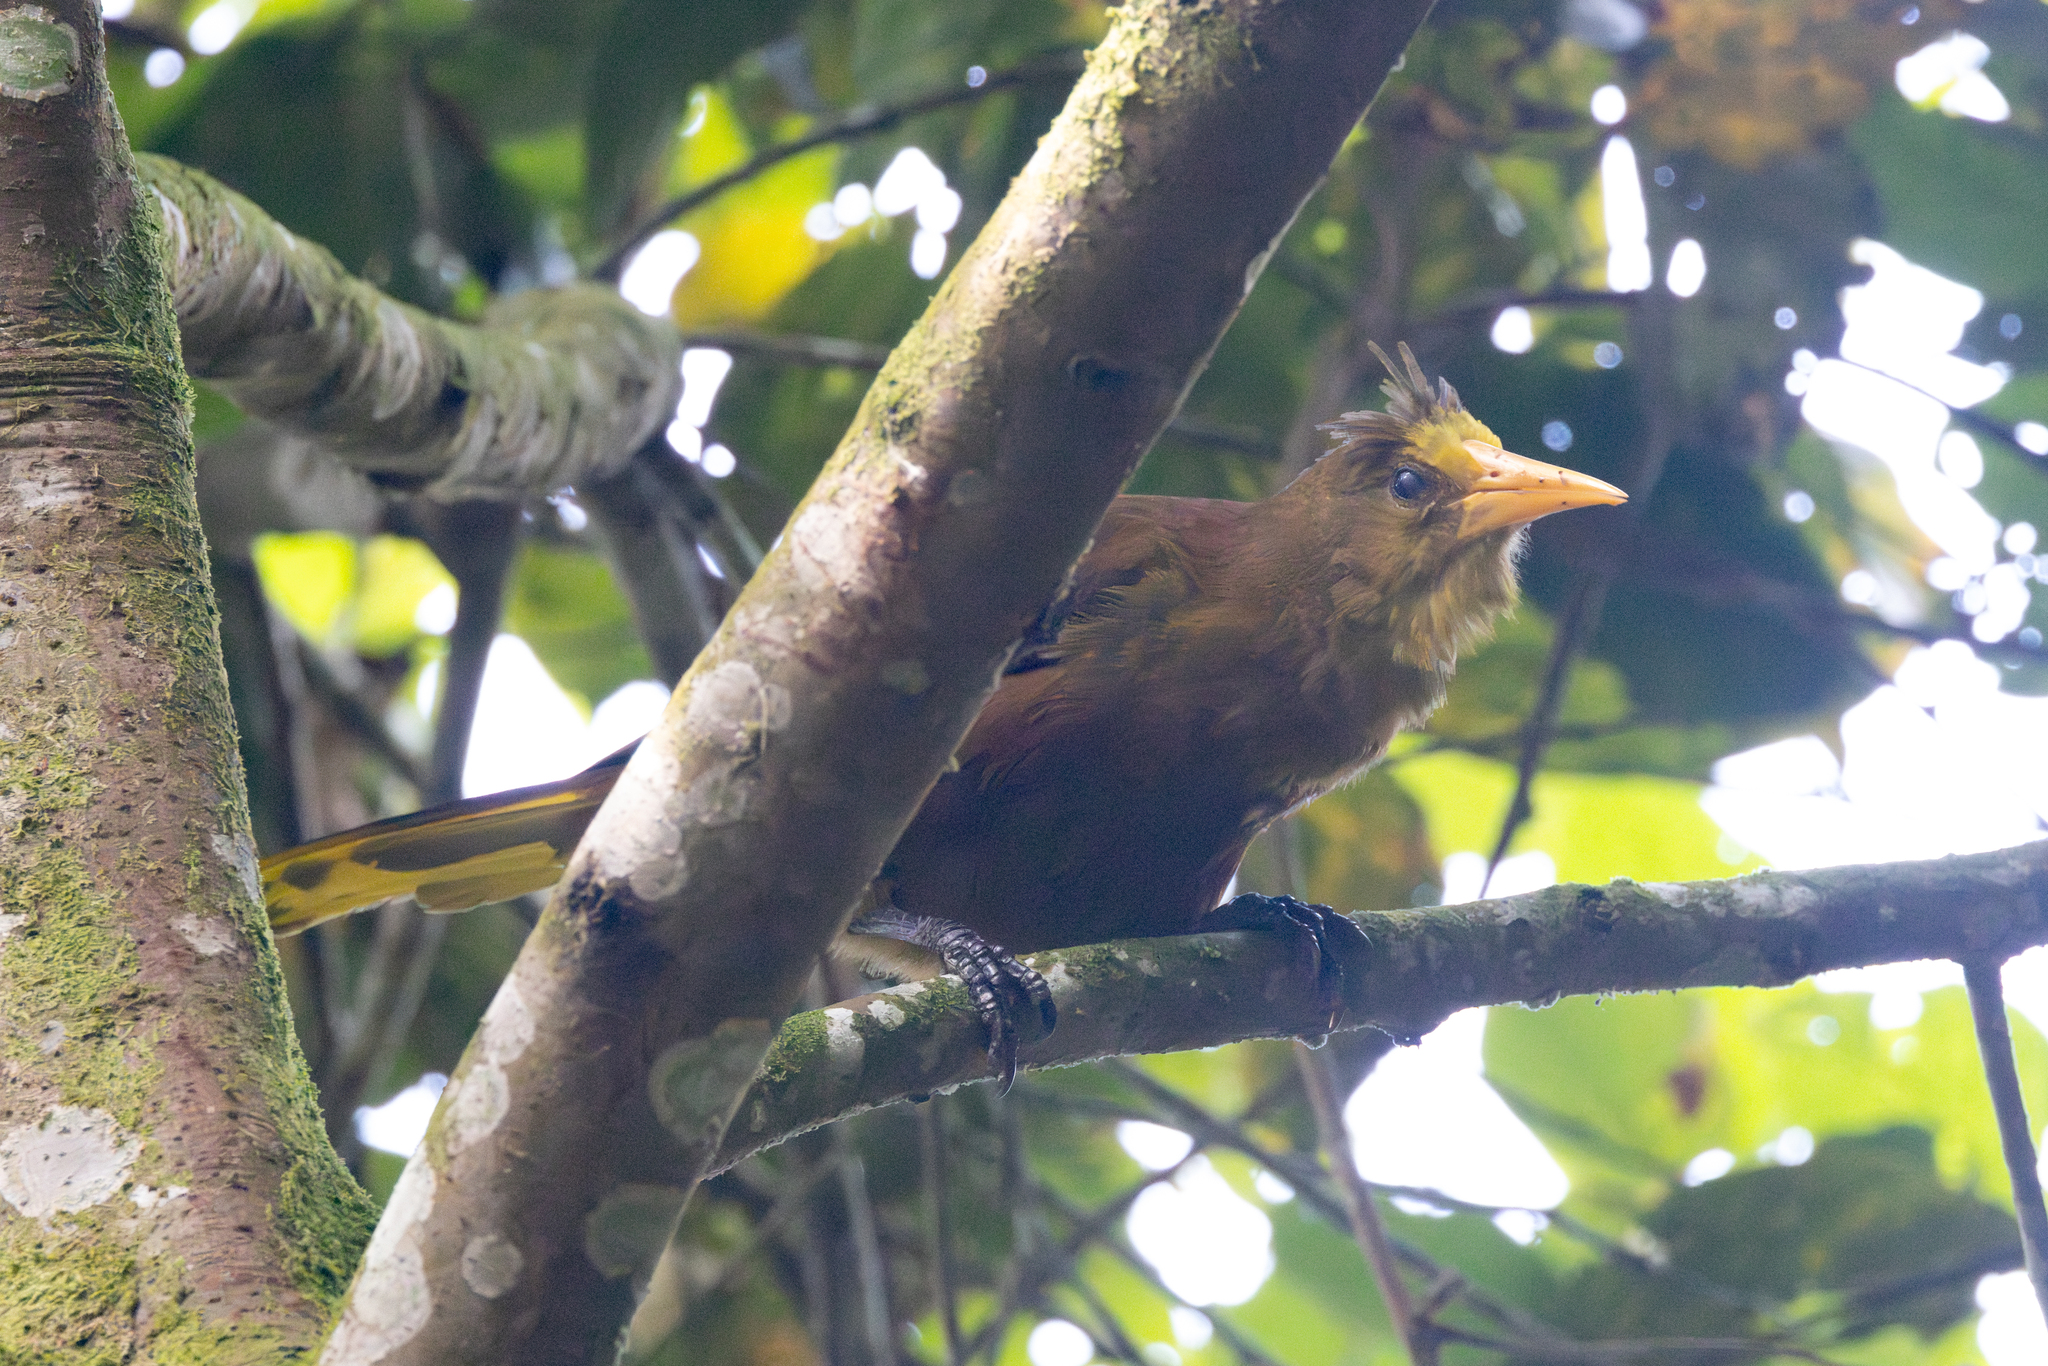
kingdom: Animalia
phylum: Chordata
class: Aves
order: Passeriformes
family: Icteridae
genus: Psarocolius
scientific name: Psarocolius angustifrons
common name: Russet-backed oropendola
